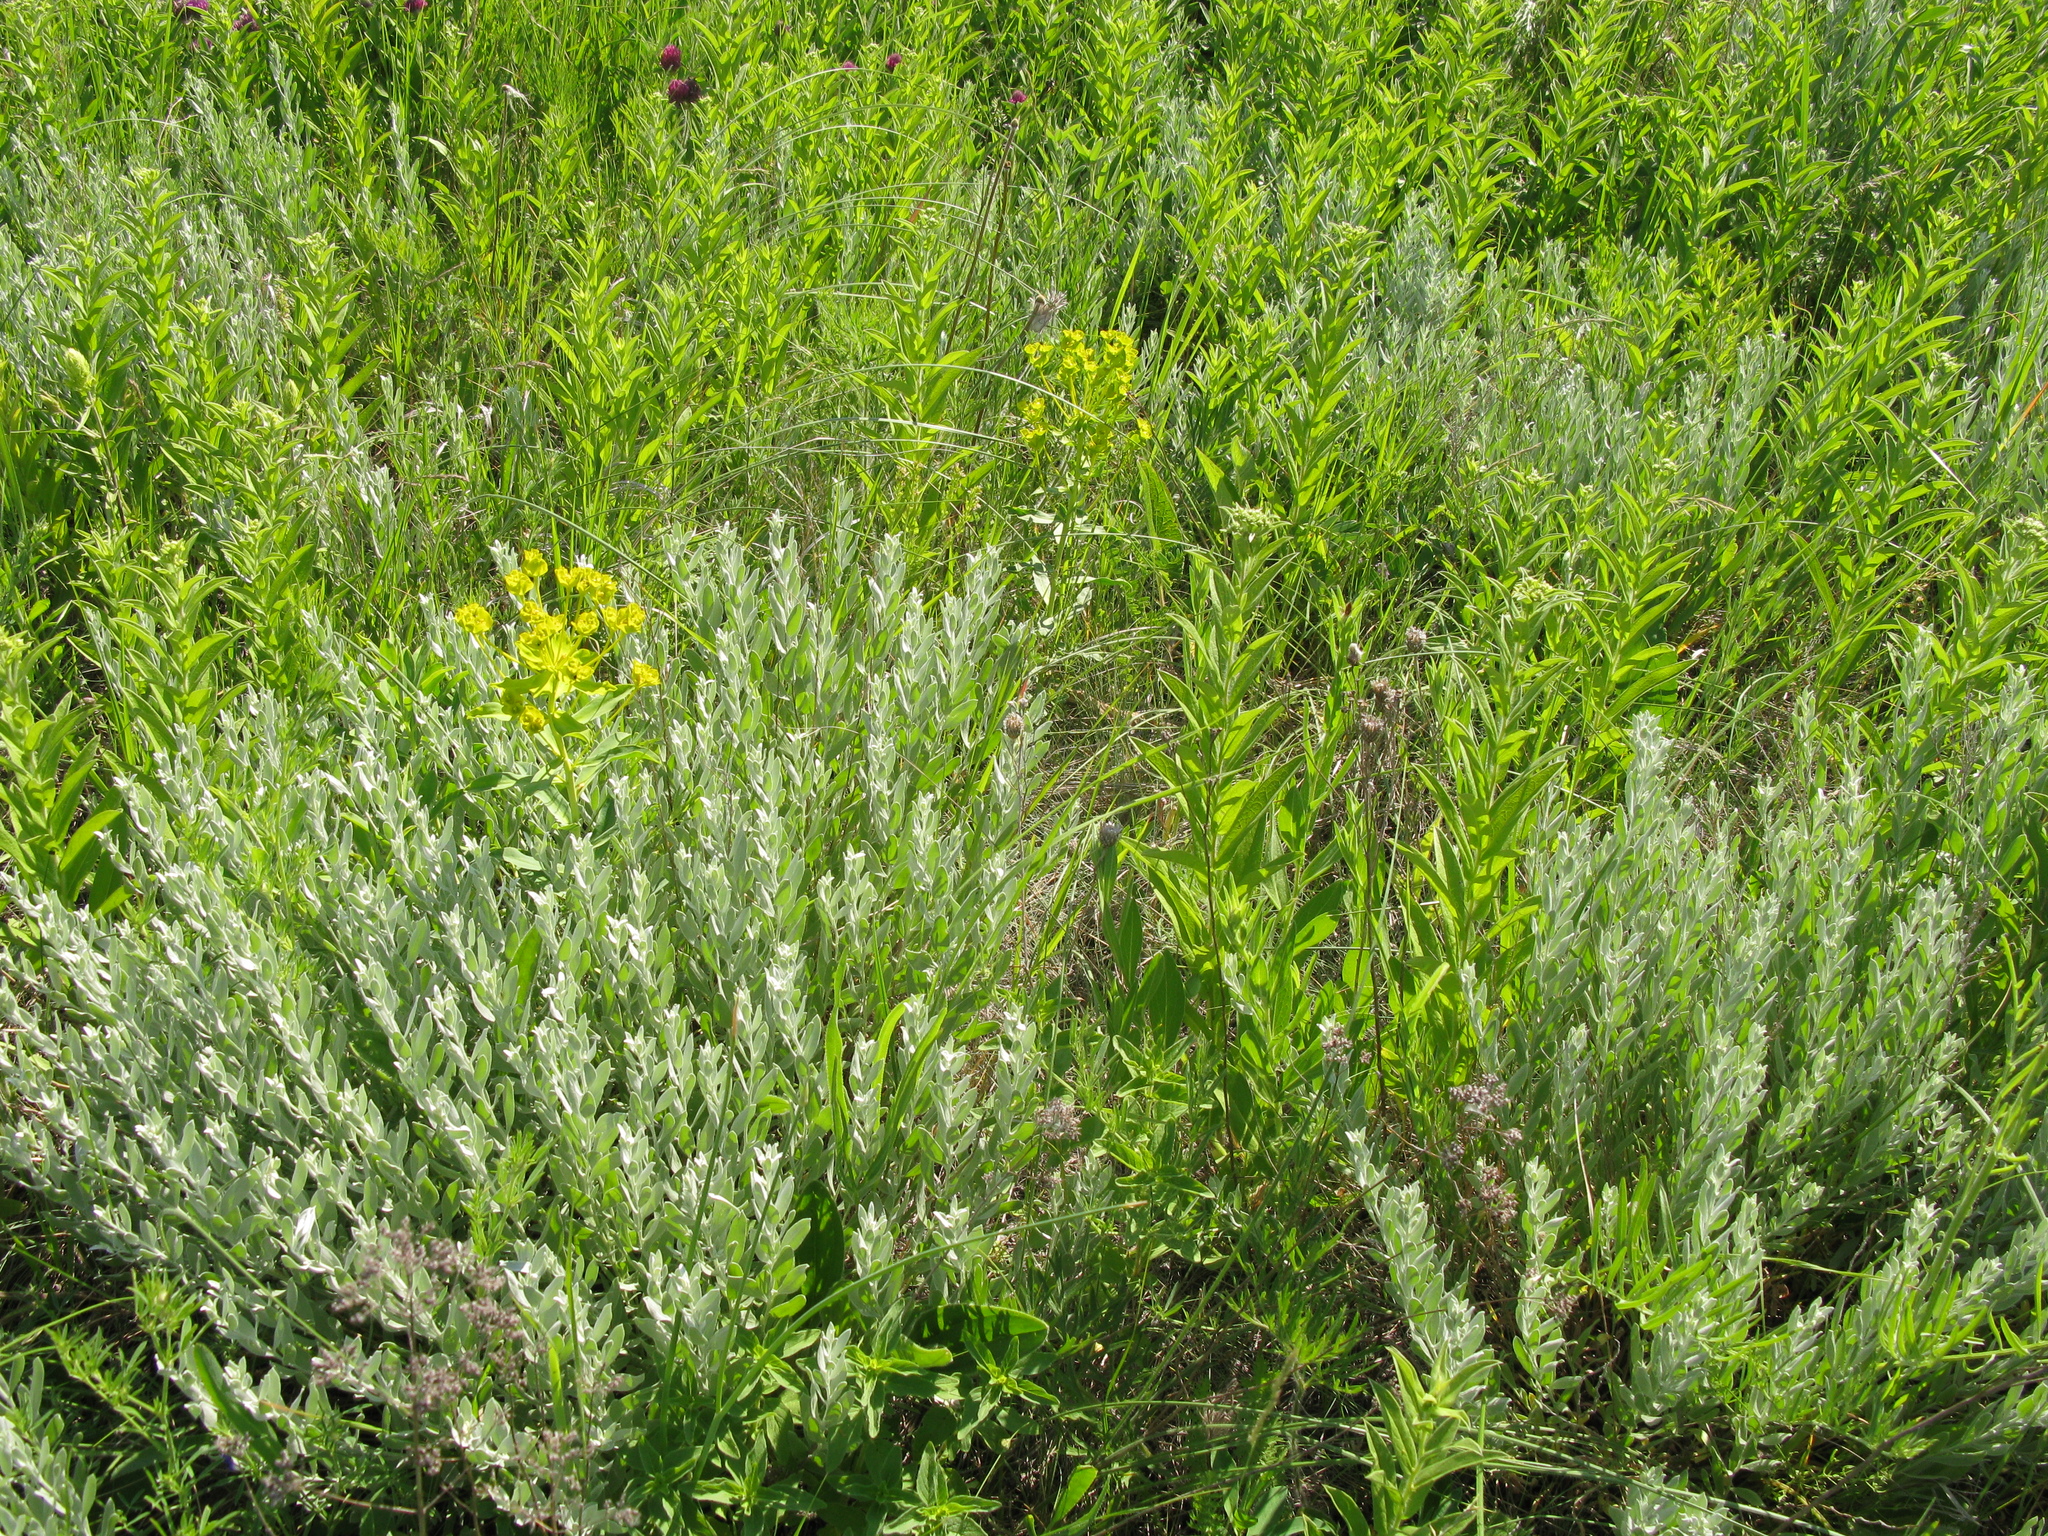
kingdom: Plantae
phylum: Tracheophyta
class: Magnoliopsida
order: Asterales
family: Asteraceae
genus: Galatella
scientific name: Galatella villosa
